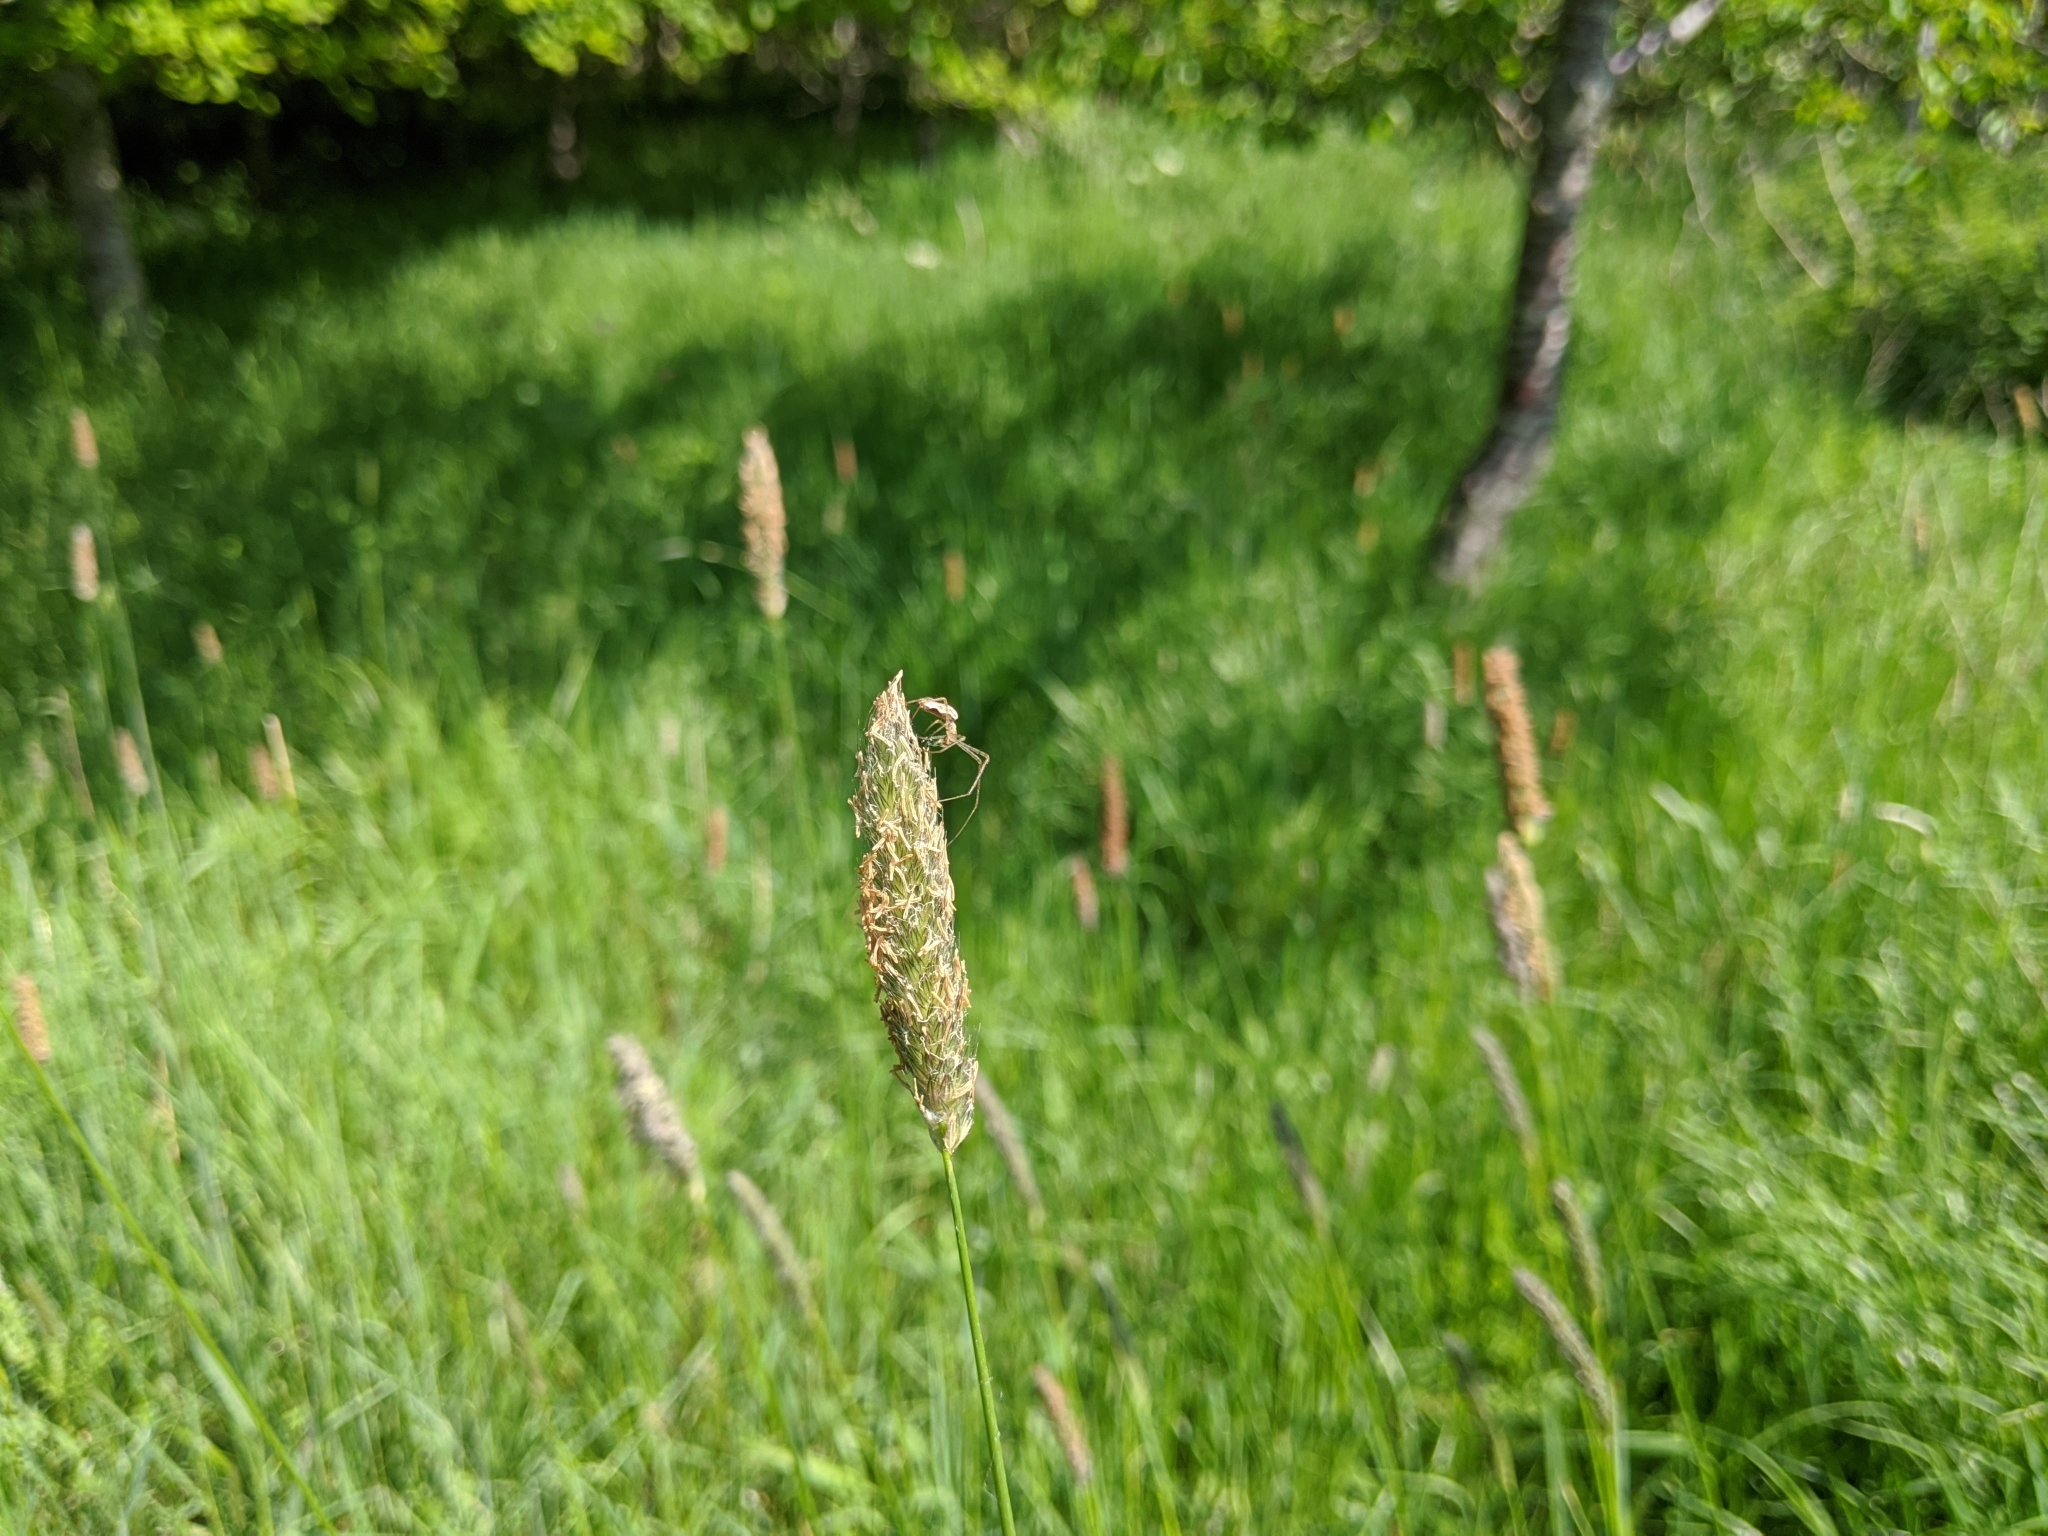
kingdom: Plantae
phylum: Tracheophyta
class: Liliopsida
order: Poales
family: Poaceae
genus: Alopecurus
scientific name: Alopecurus pratensis
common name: Meadow foxtail
